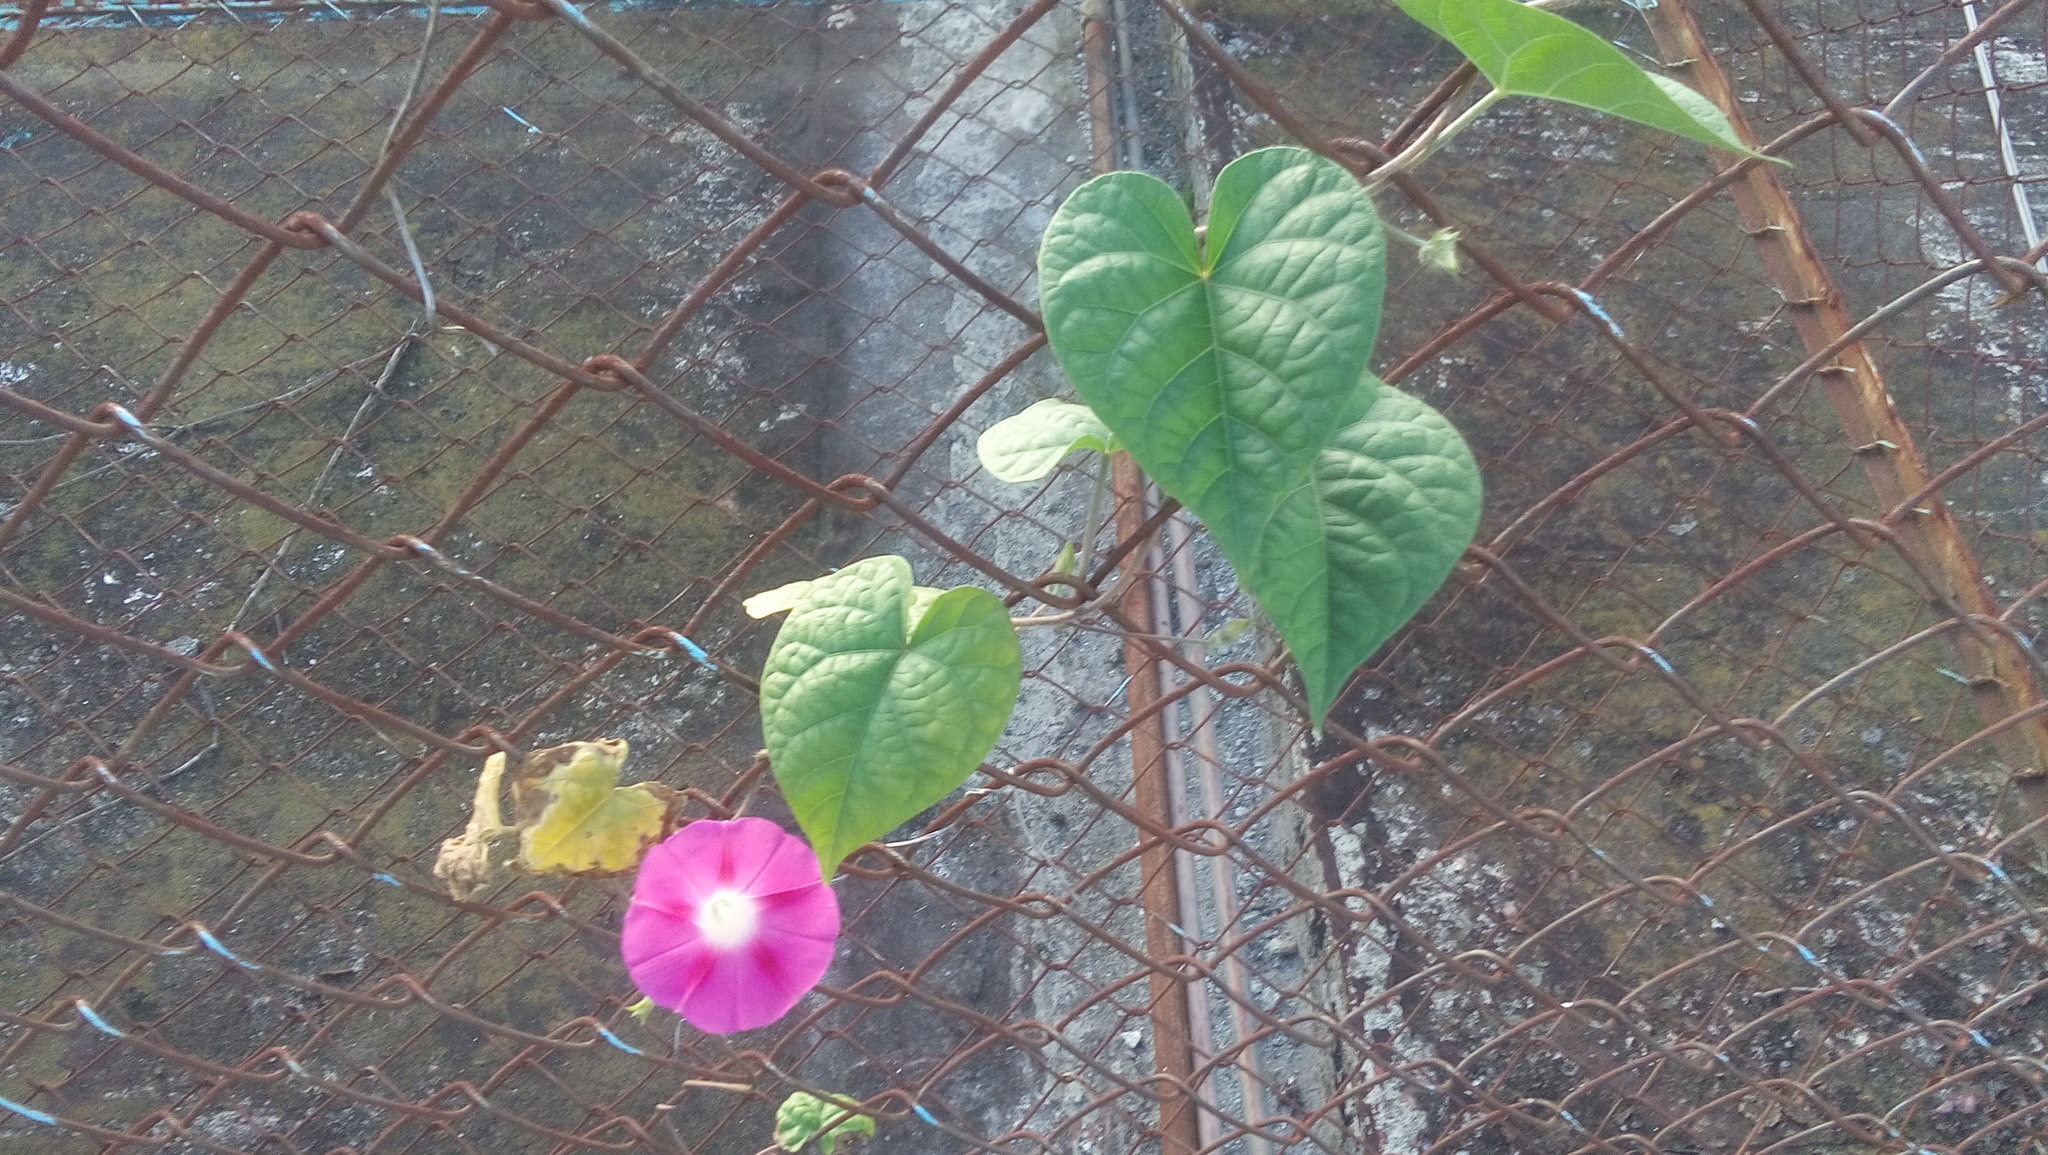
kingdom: Plantae
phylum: Tracheophyta
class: Magnoliopsida
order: Solanales
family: Convolvulaceae
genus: Ipomoea
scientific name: Ipomoea purpurea
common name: Common morning-glory
